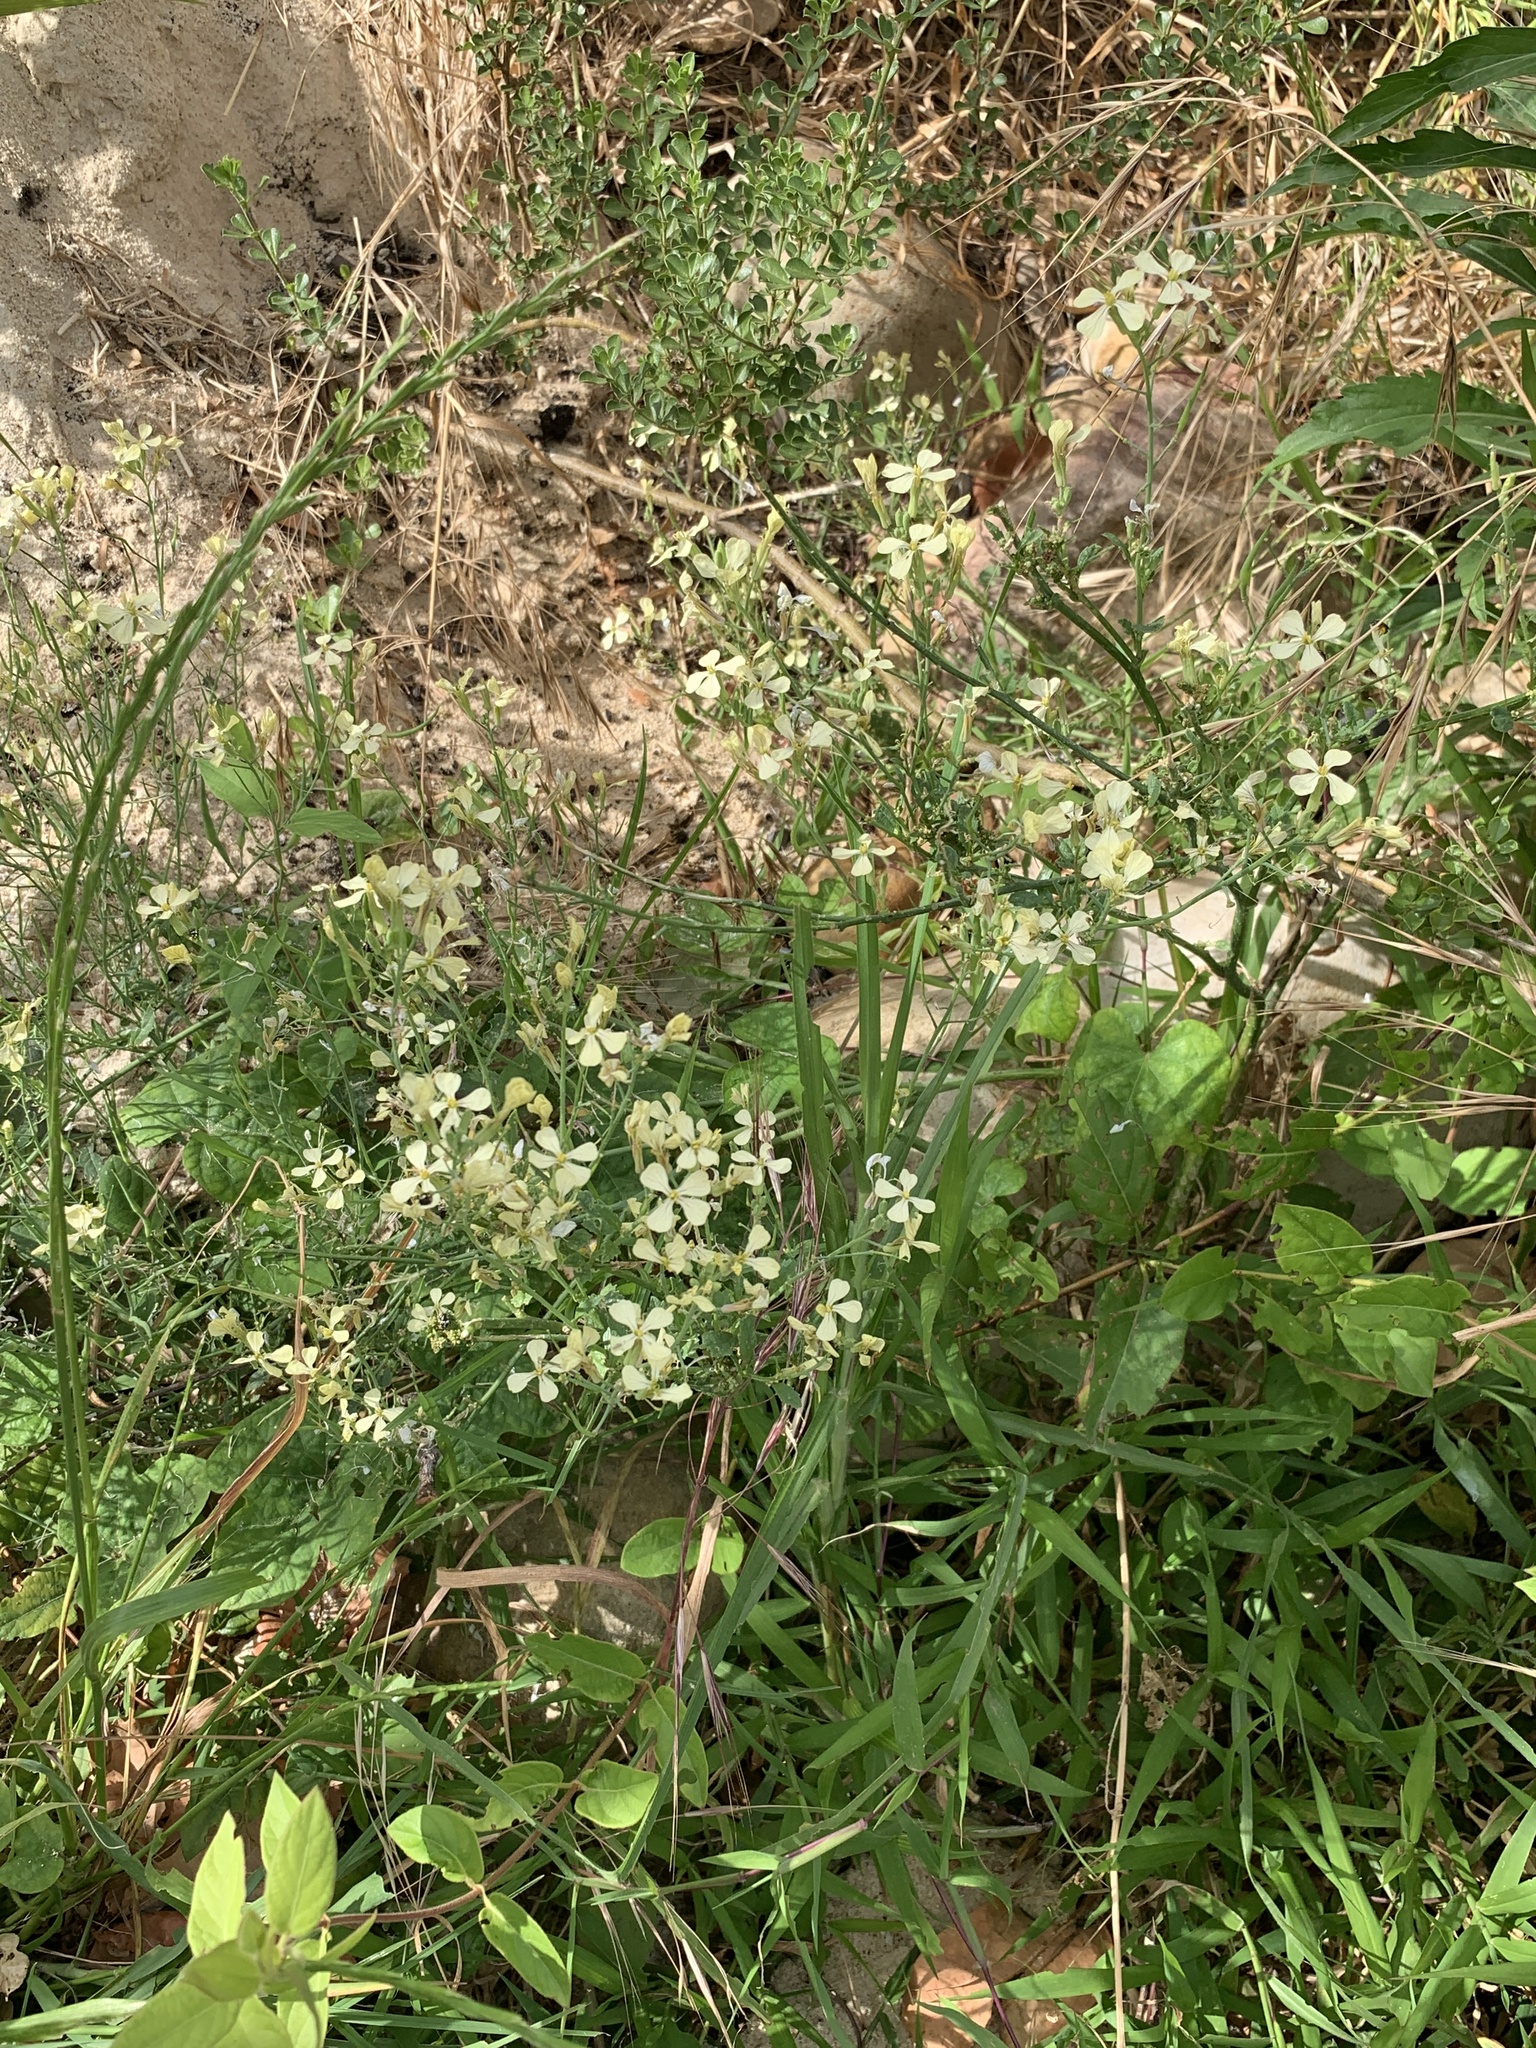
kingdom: Plantae
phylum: Tracheophyta
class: Magnoliopsida
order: Brassicales
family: Brassicaceae
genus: Raphanus
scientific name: Raphanus raphanistrum
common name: Wild radish
